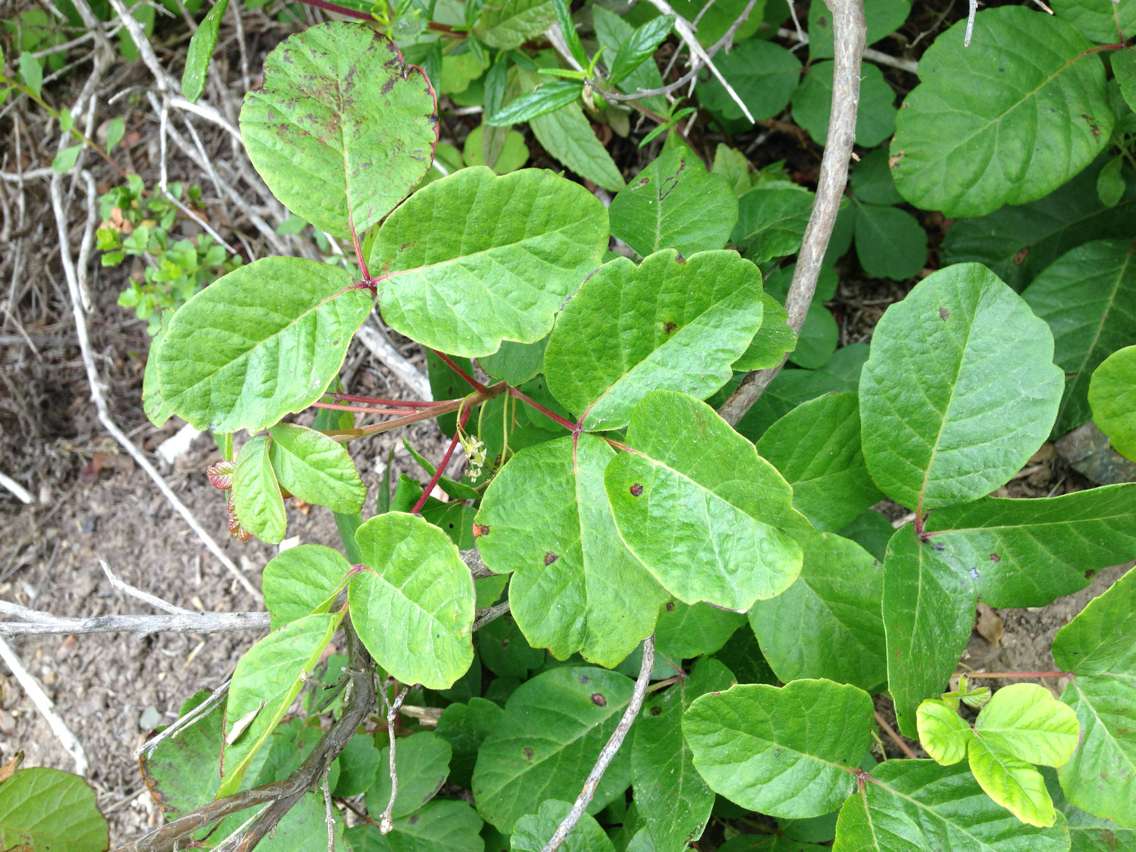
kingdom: Plantae
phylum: Tracheophyta
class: Magnoliopsida
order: Sapindales
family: Anacardiaceae
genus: Toxicodendron
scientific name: Toxicodendron diversilobum
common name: Pacific poison-oak
